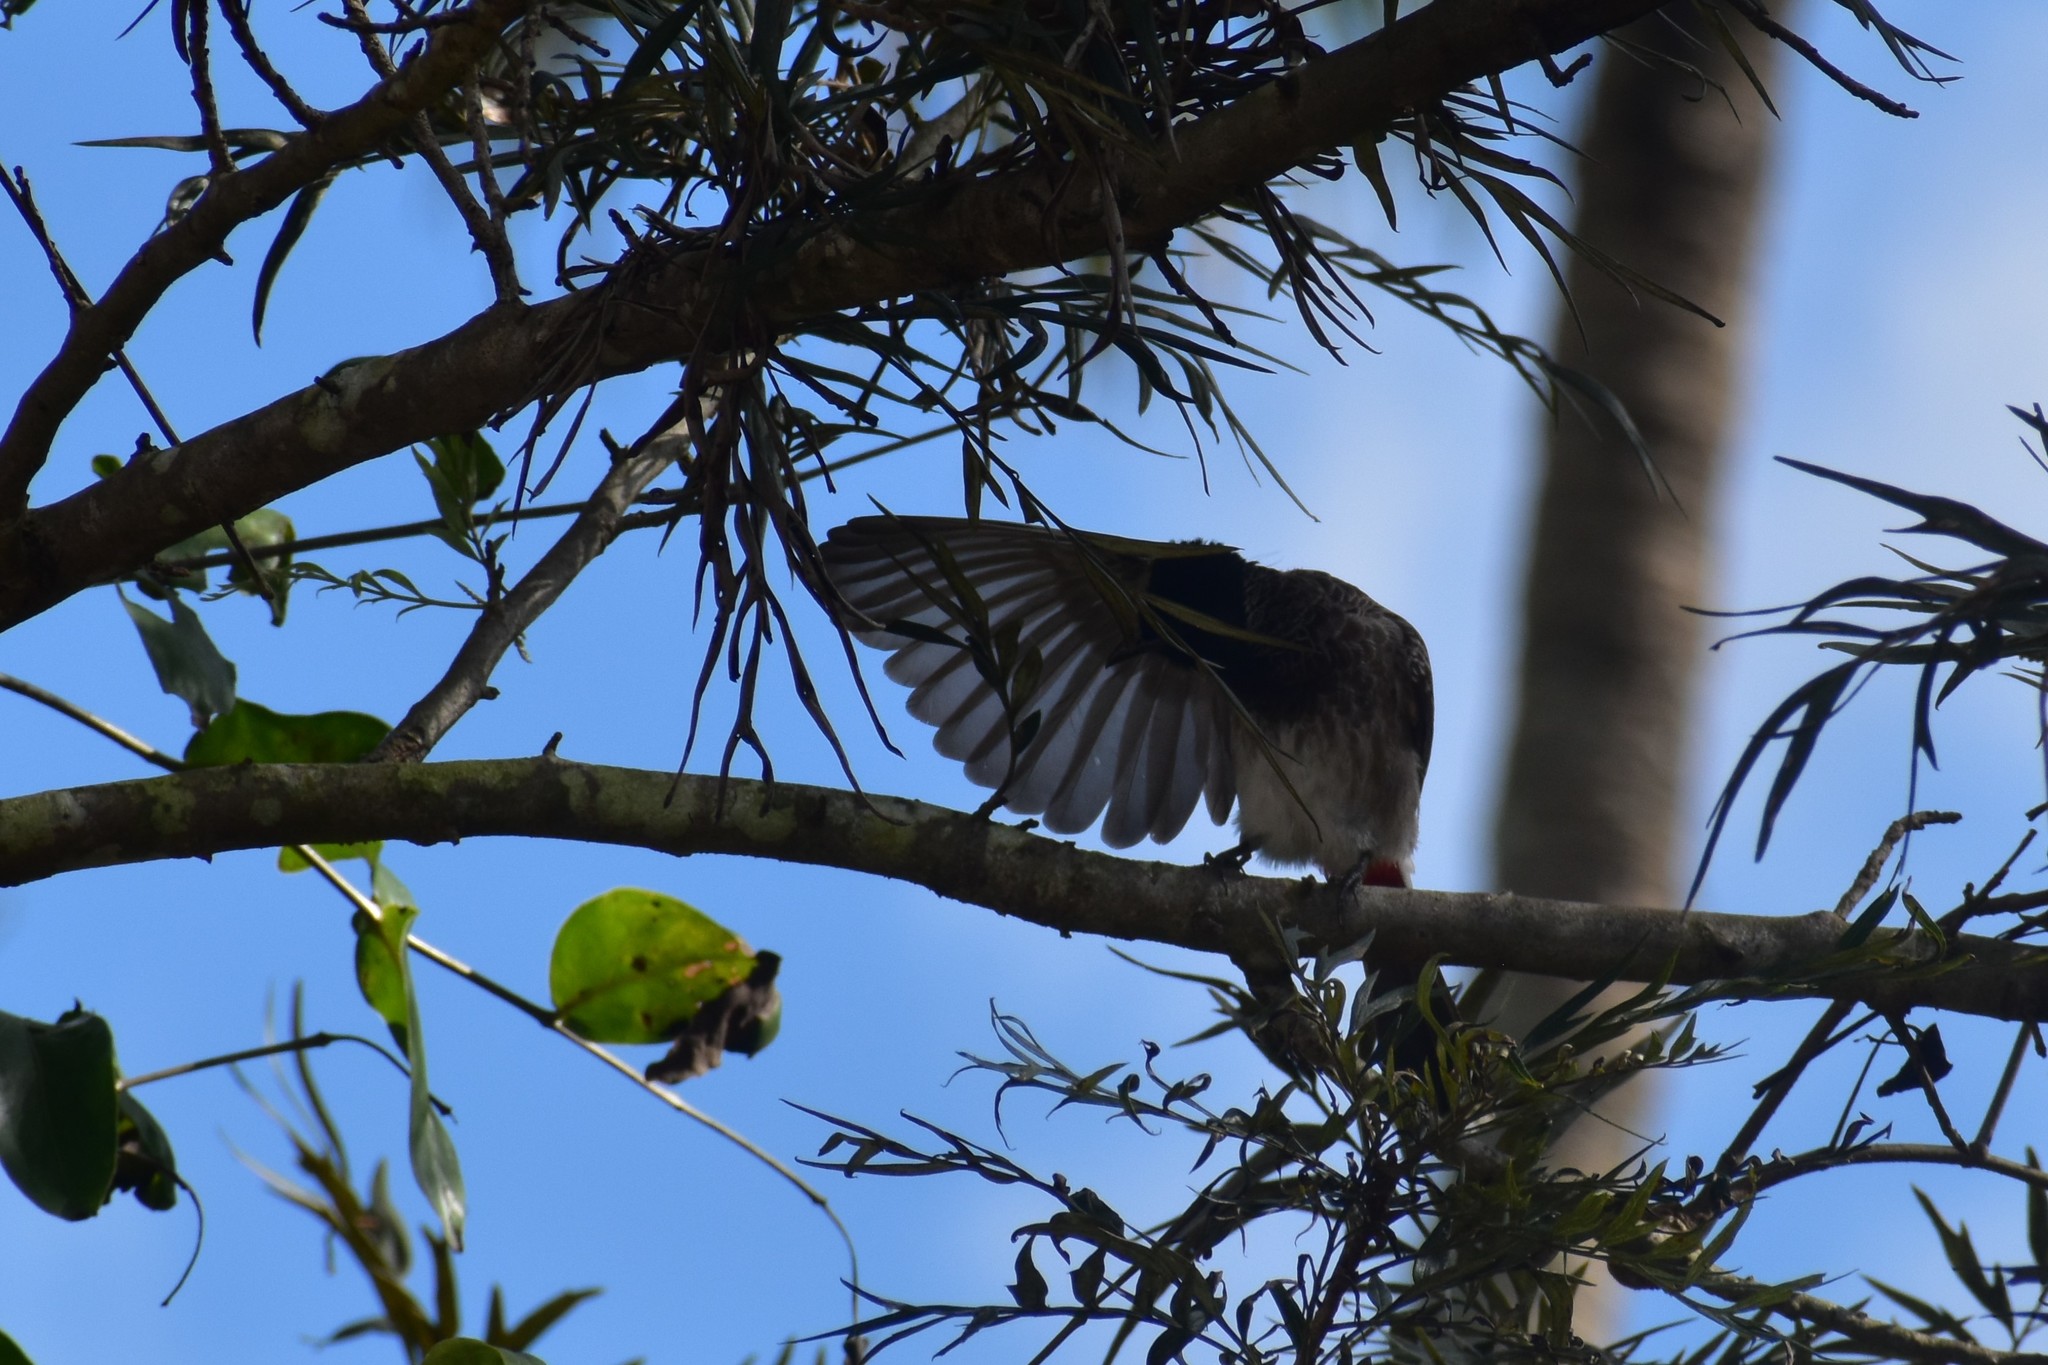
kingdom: Animalia
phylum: Chordata
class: Aves
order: Passeriformes
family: Pycnonotidae
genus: Pycnonotus
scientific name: Pycnonotus cafer
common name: Red-vented bulbul
